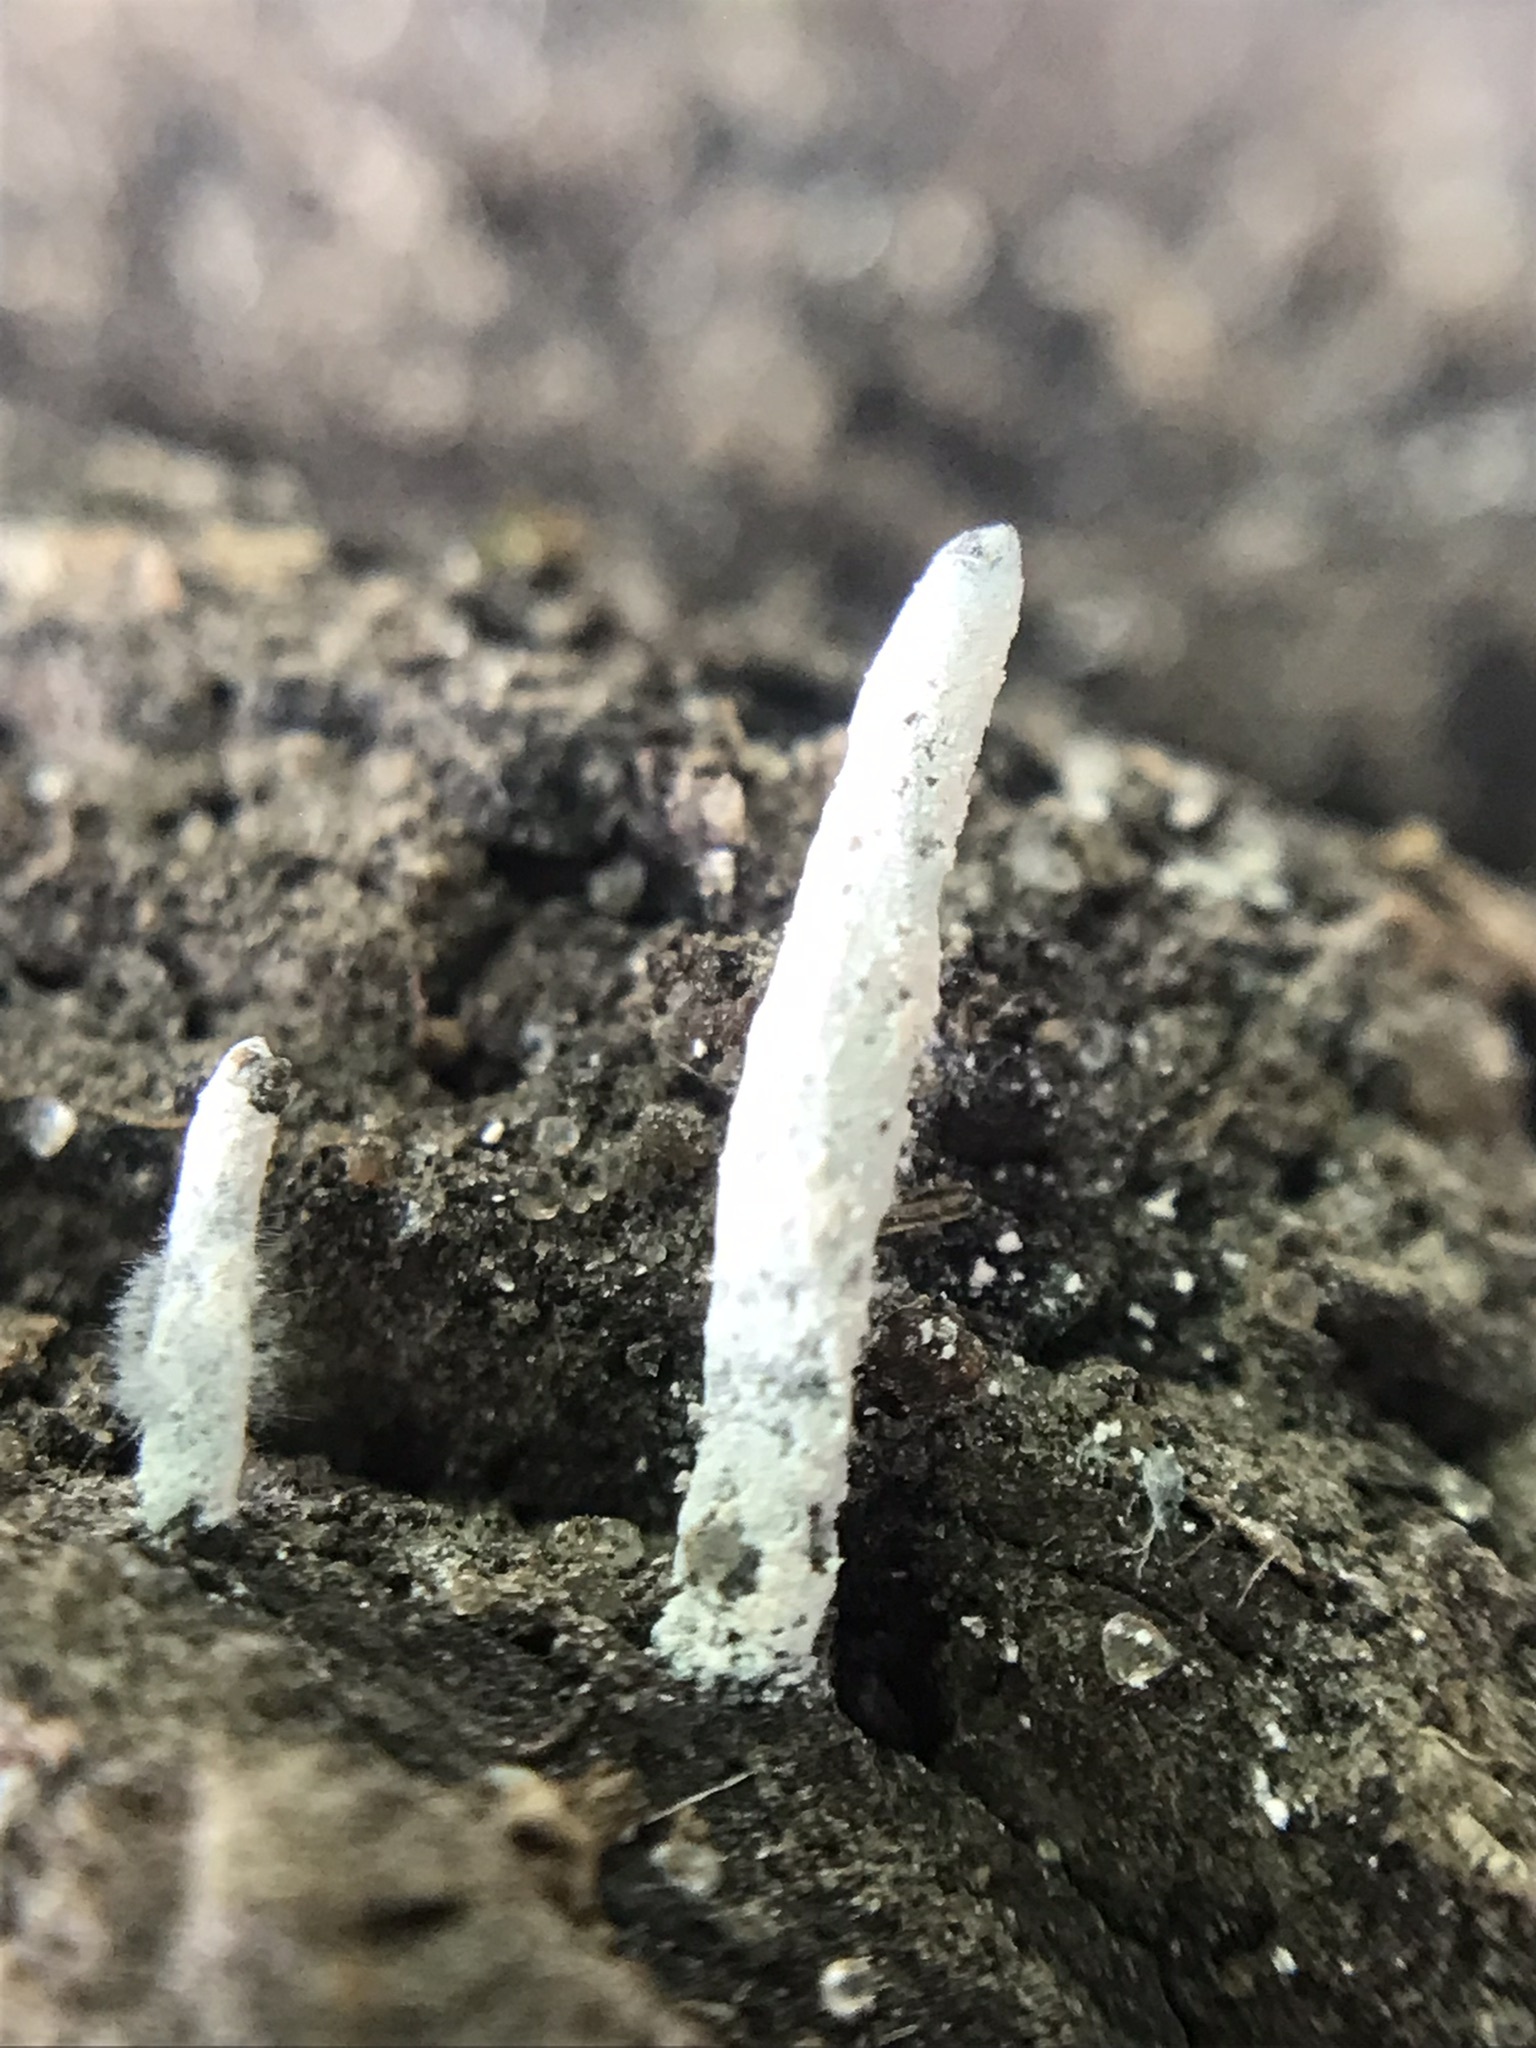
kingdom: Fungi
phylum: Ascomycota
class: Sordariomycetes
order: Xylariales
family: Xylariaceae
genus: Xylaria
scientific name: Xylaria polymorpha
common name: Dead man's fingers
